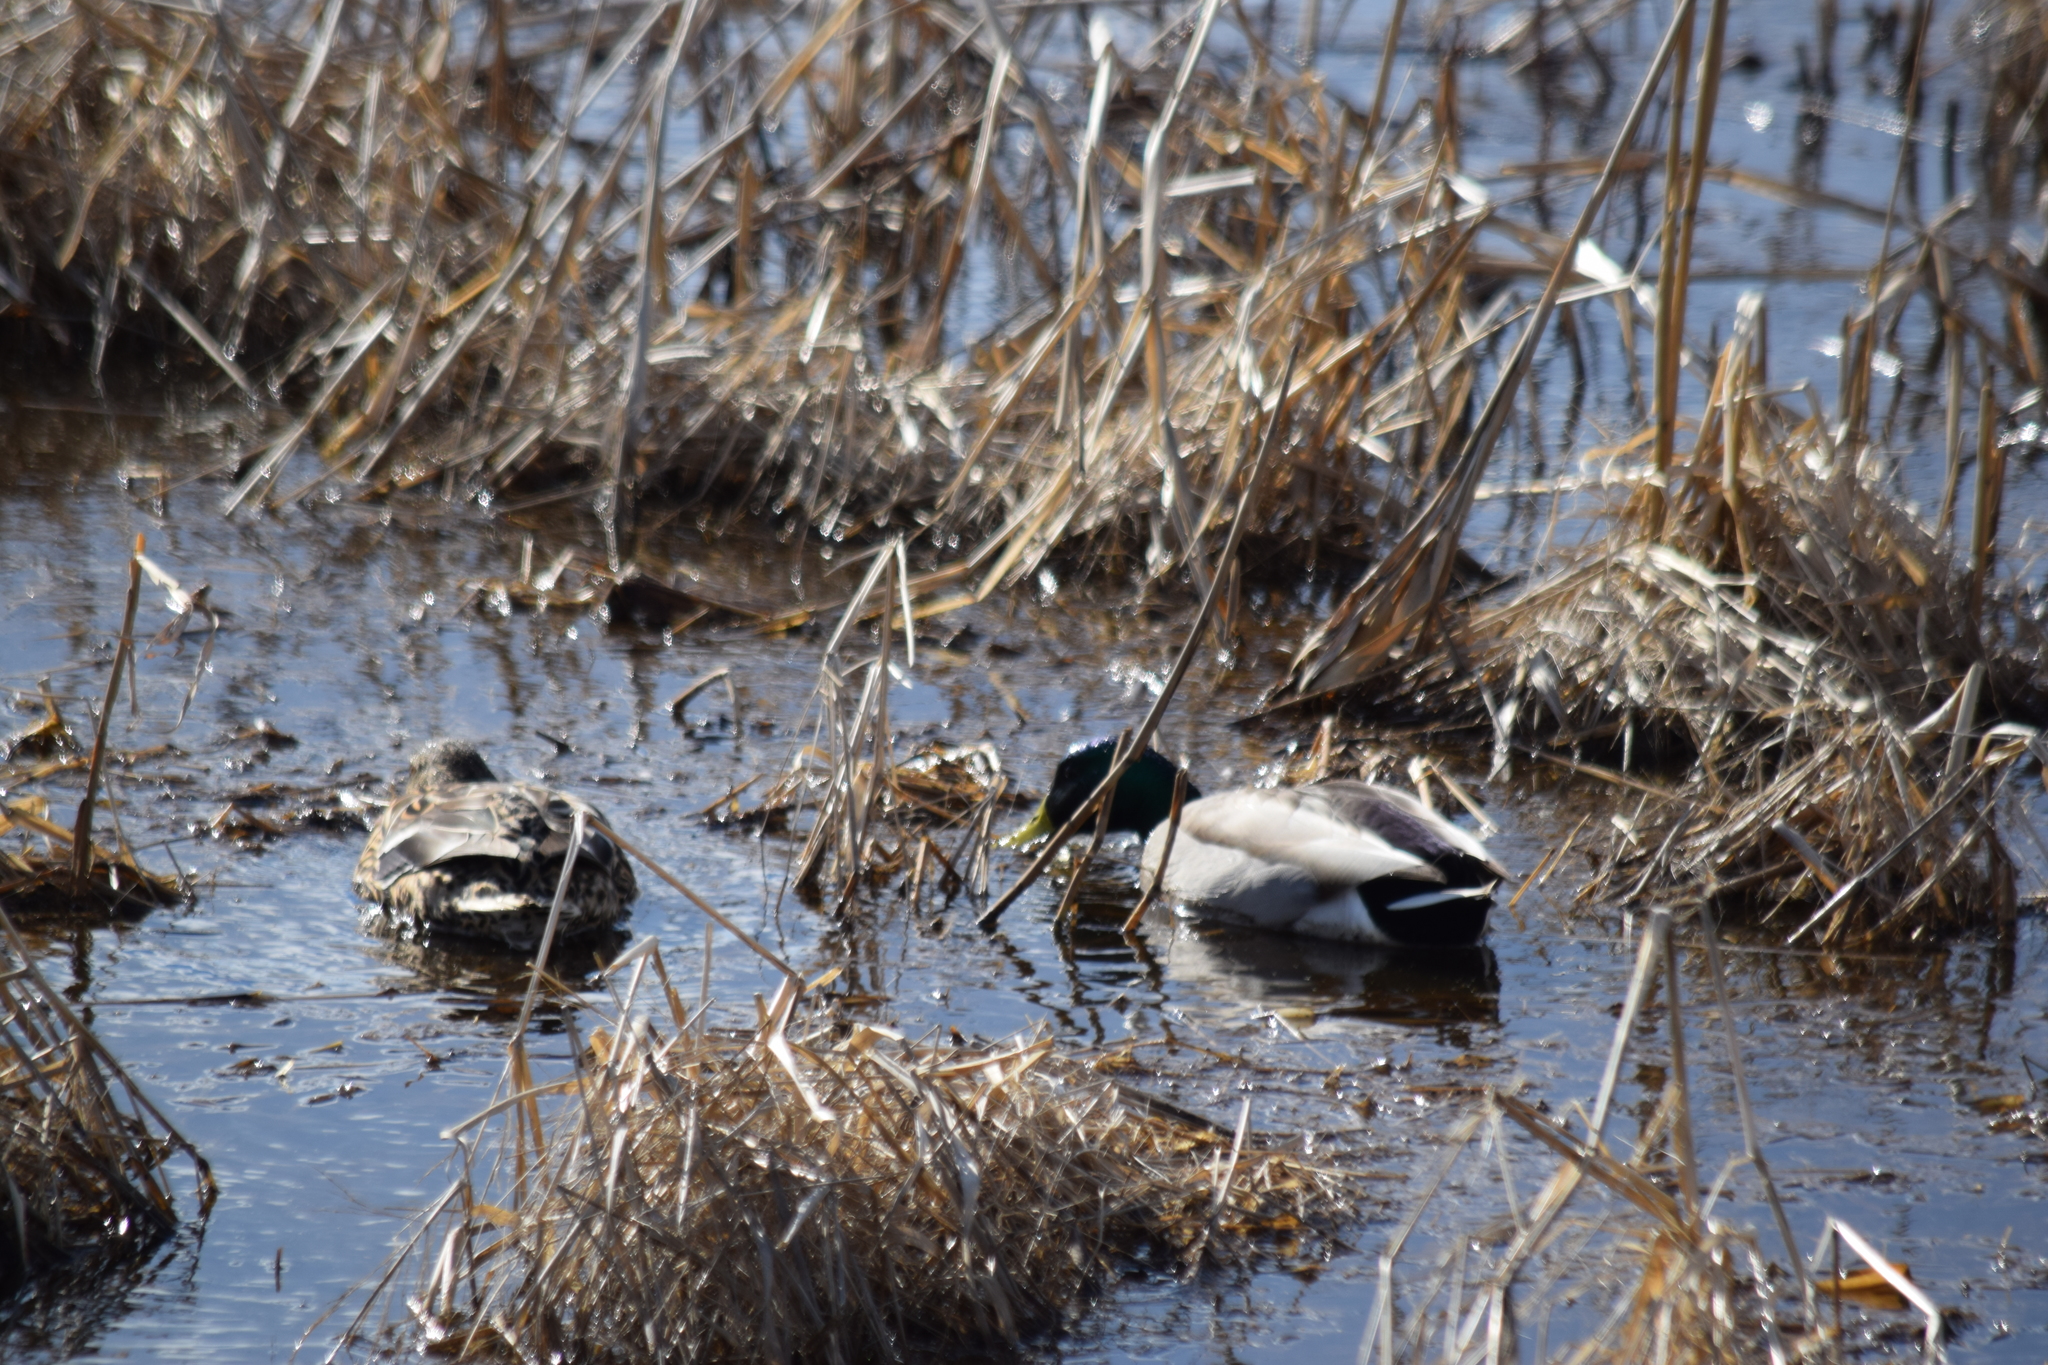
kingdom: Animalia
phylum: Chordata
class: Aves
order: Anseriformes
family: Anatidae
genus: Anas
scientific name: Anas platyrhynchos
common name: Mallard
